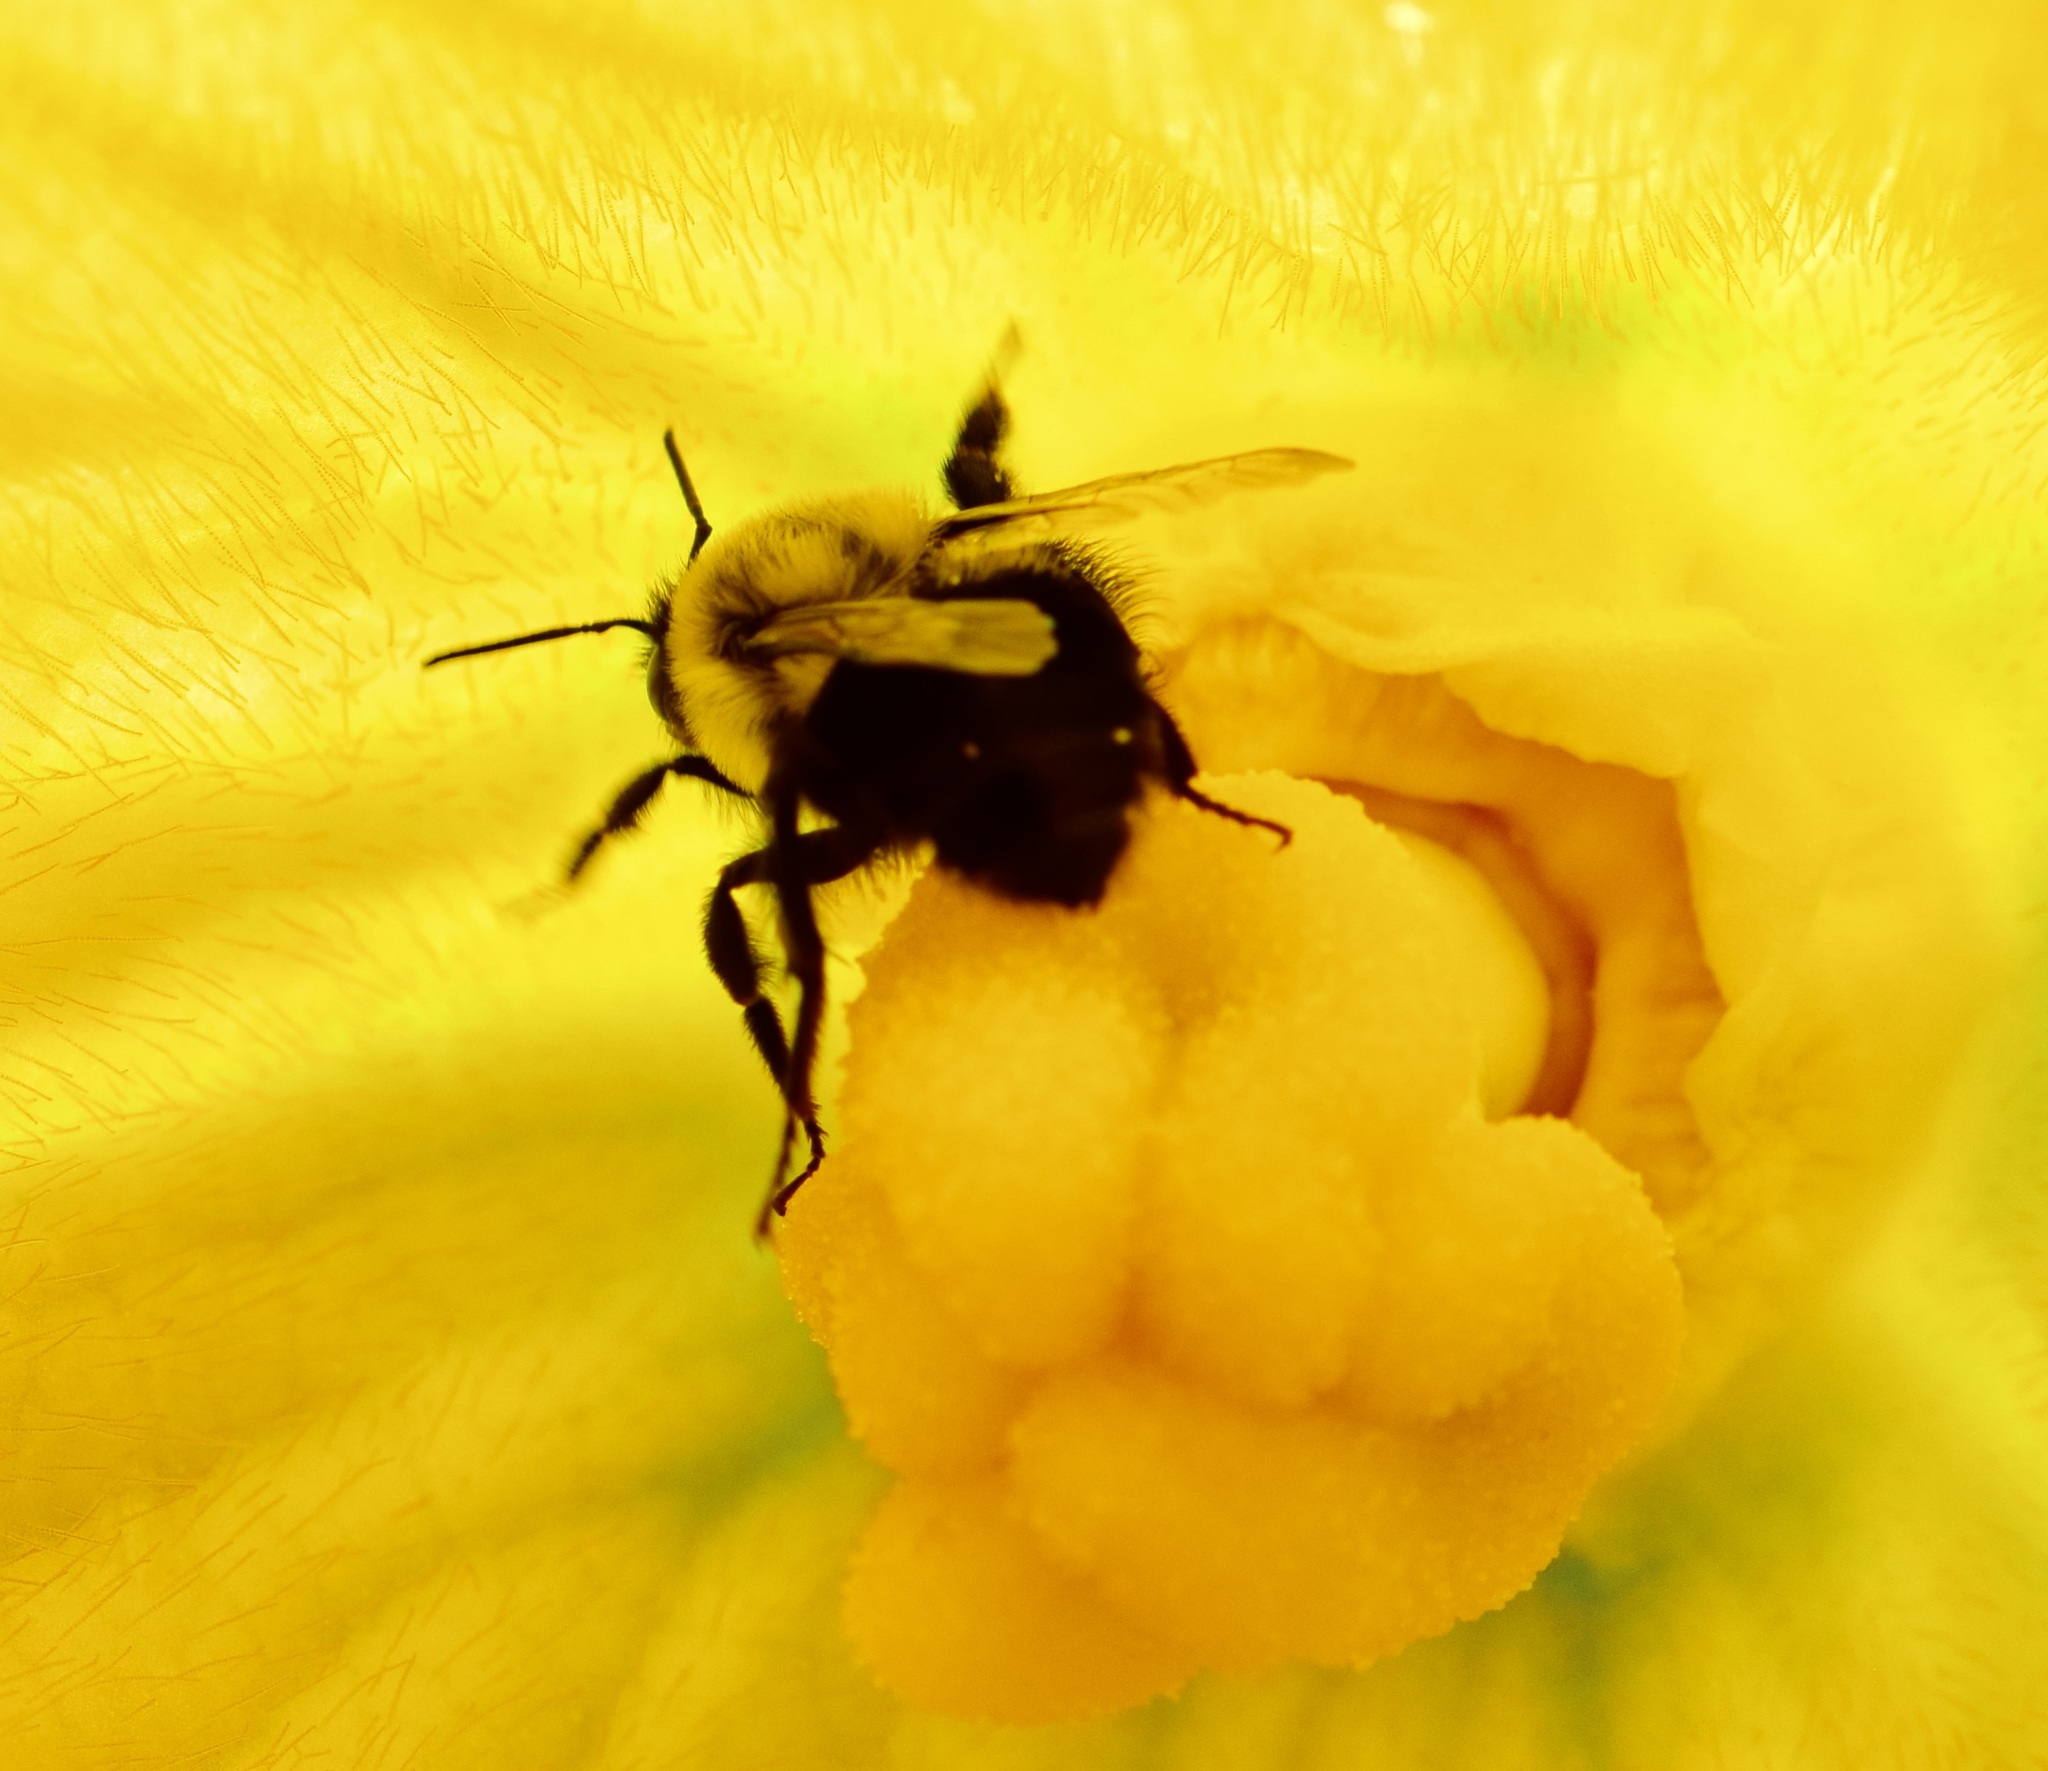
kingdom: Animalia
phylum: Arthropoda
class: Insecta
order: Hymenoptera
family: Apidae
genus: Bombus
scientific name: Bombus impatiens
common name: Common eastern bumble bee
